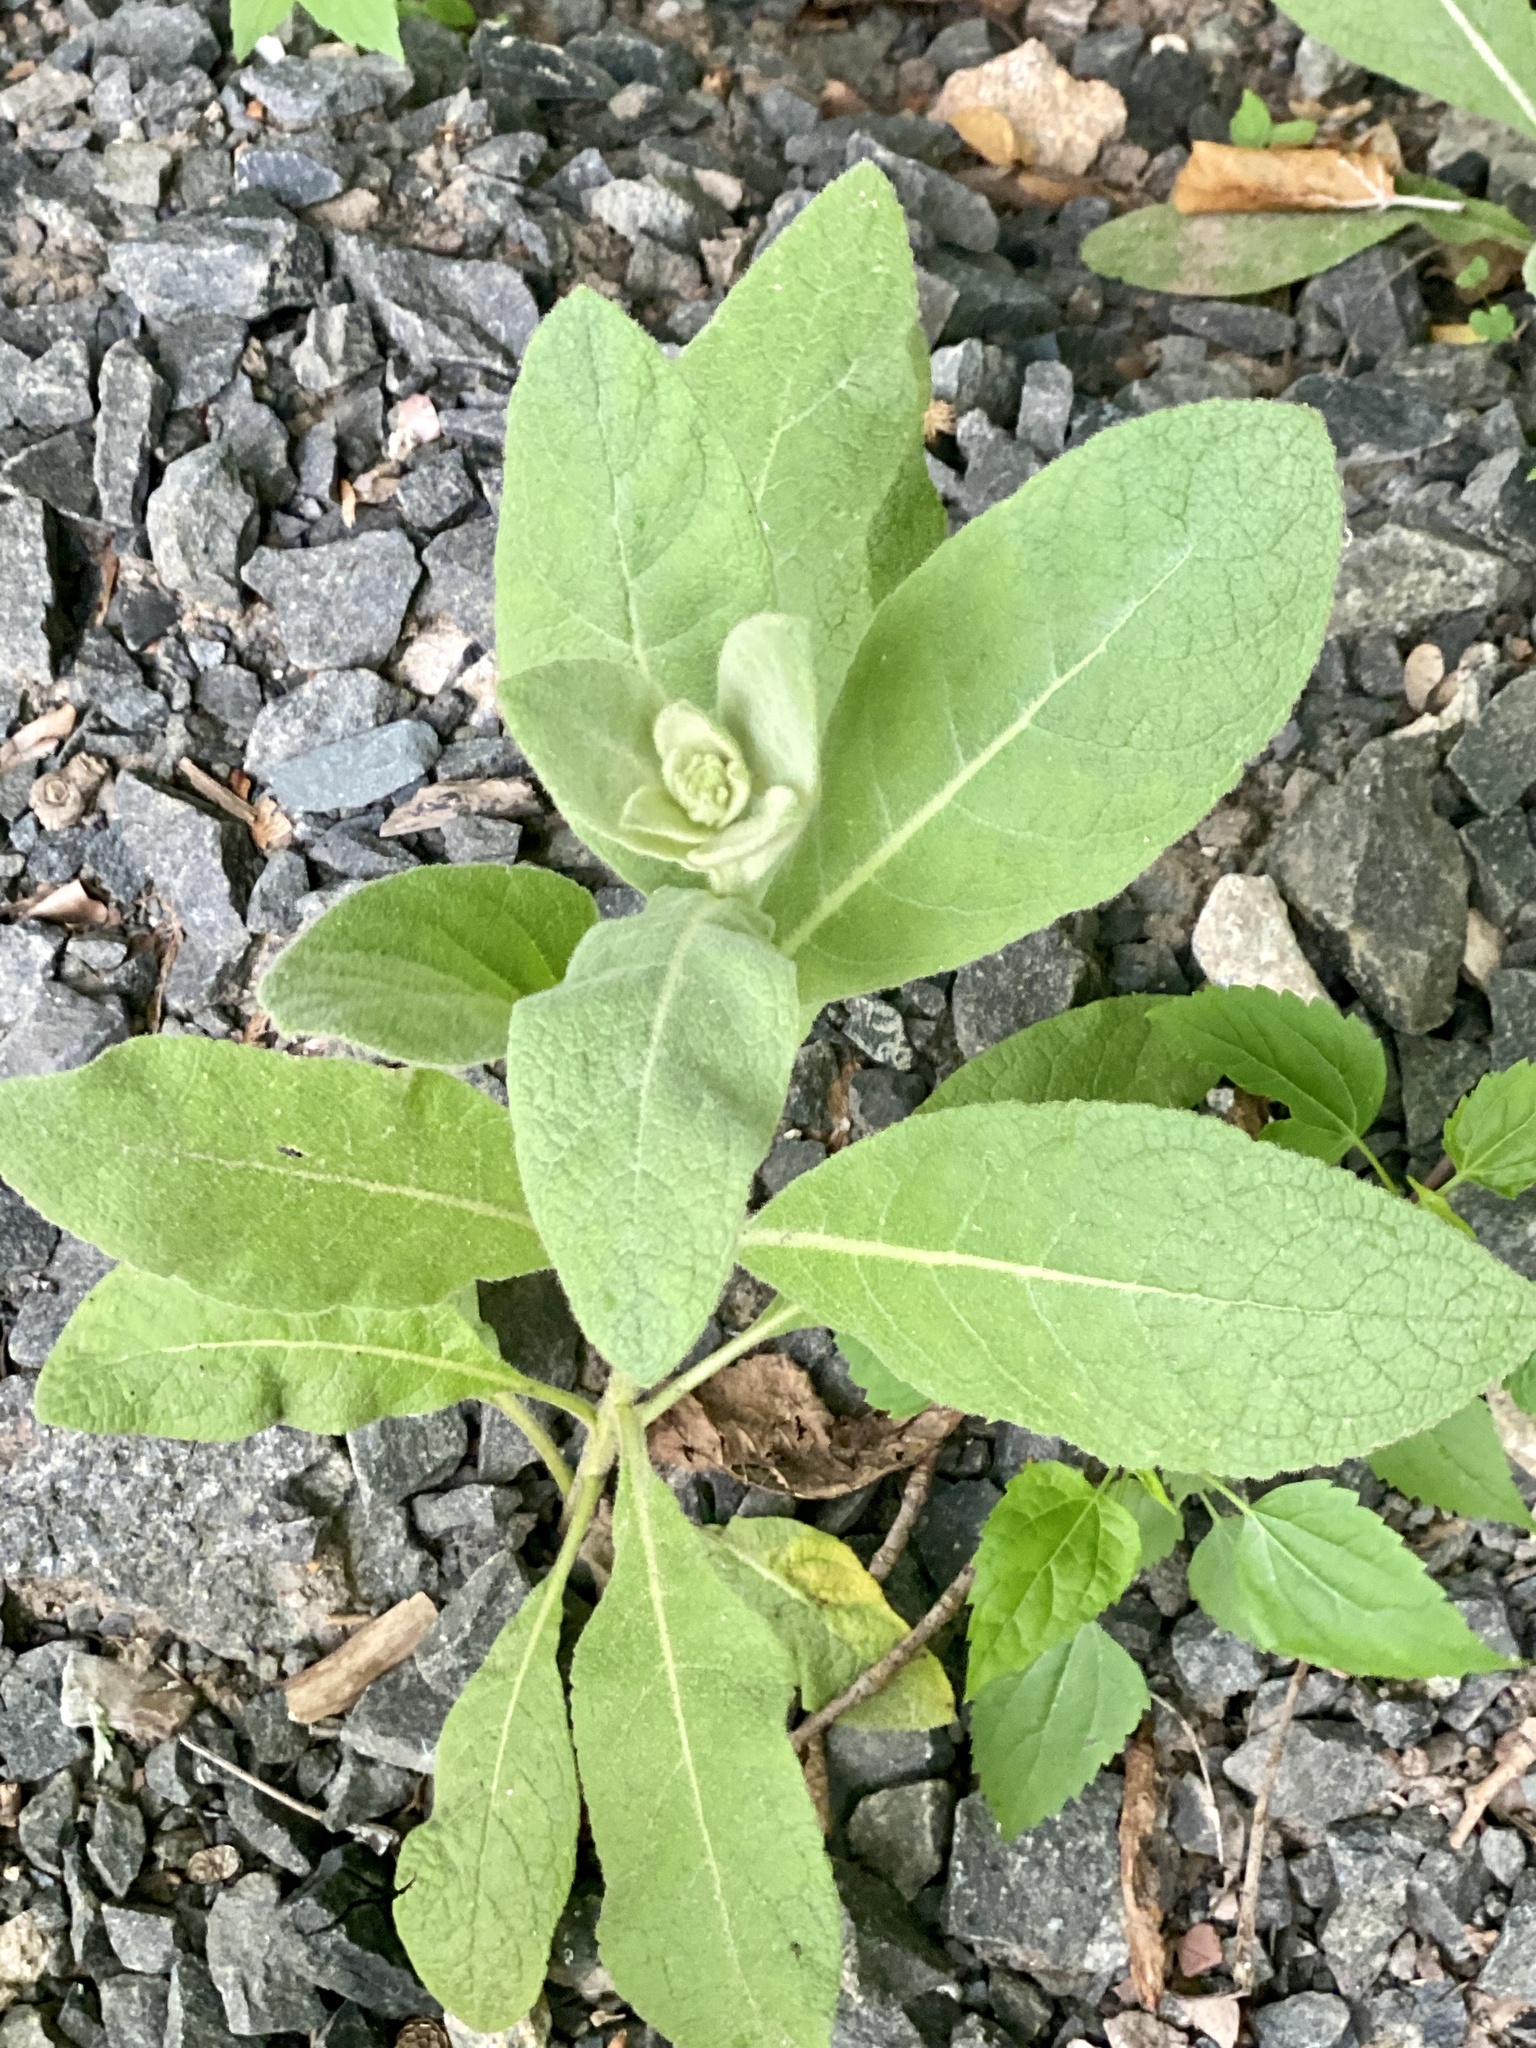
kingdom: Plantae
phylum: Tracheophyta
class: Magnoliopsida
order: Lamiales
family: Scrophulariaceae
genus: Verbascum
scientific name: Verbascum thapsus
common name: Common mullein
